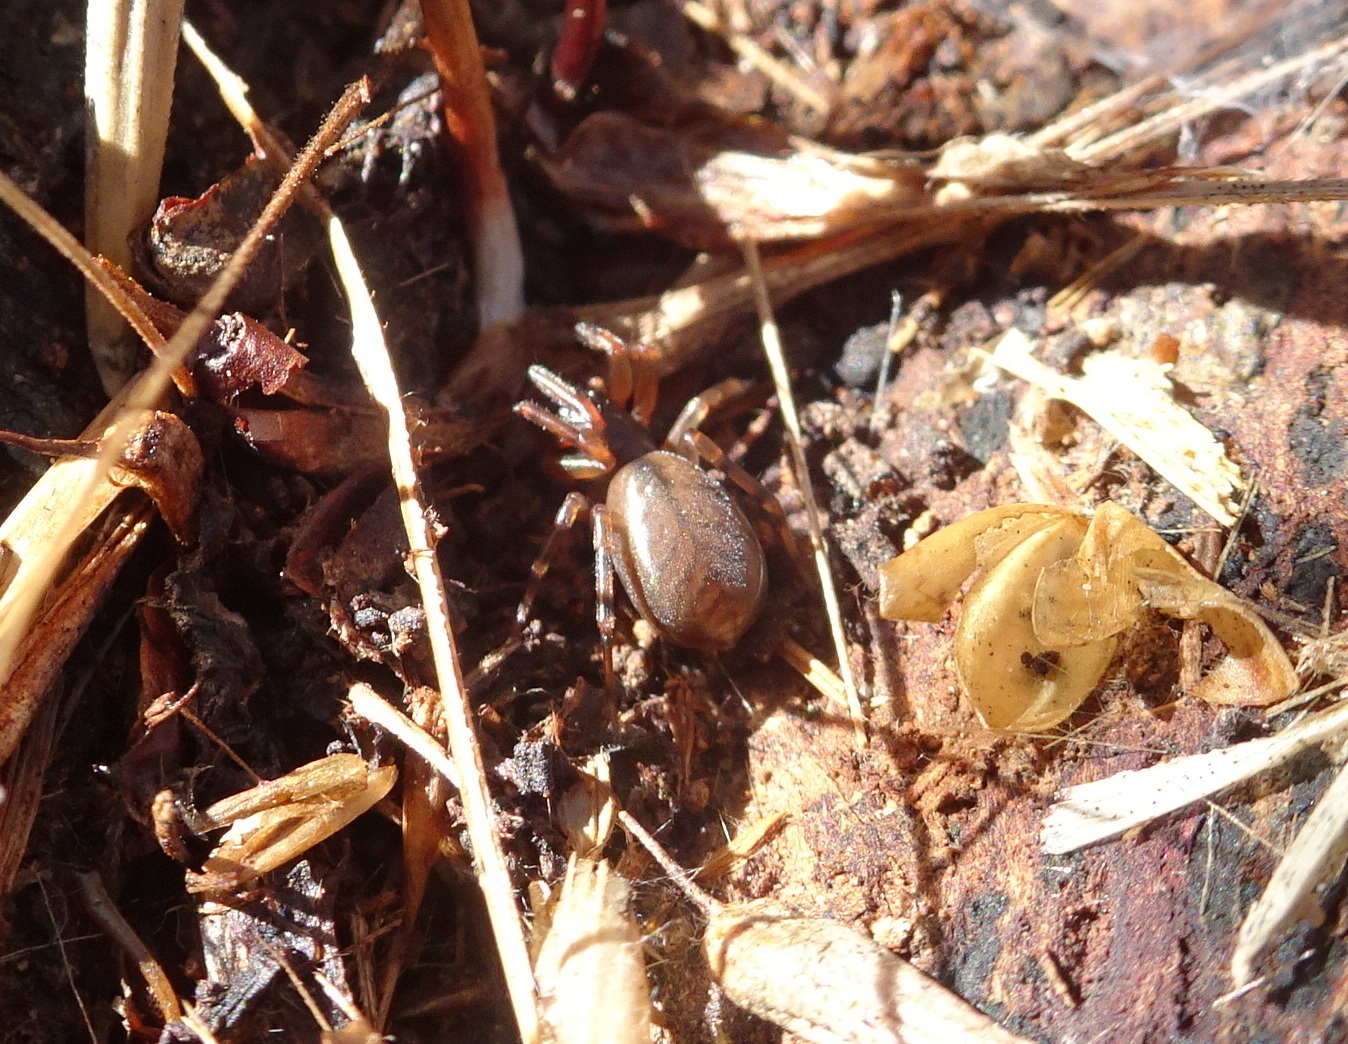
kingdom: Animalia
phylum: Arthropoda
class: Arachnida
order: Araneae
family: Trachelidae
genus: Meriola
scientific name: Meriola californica
